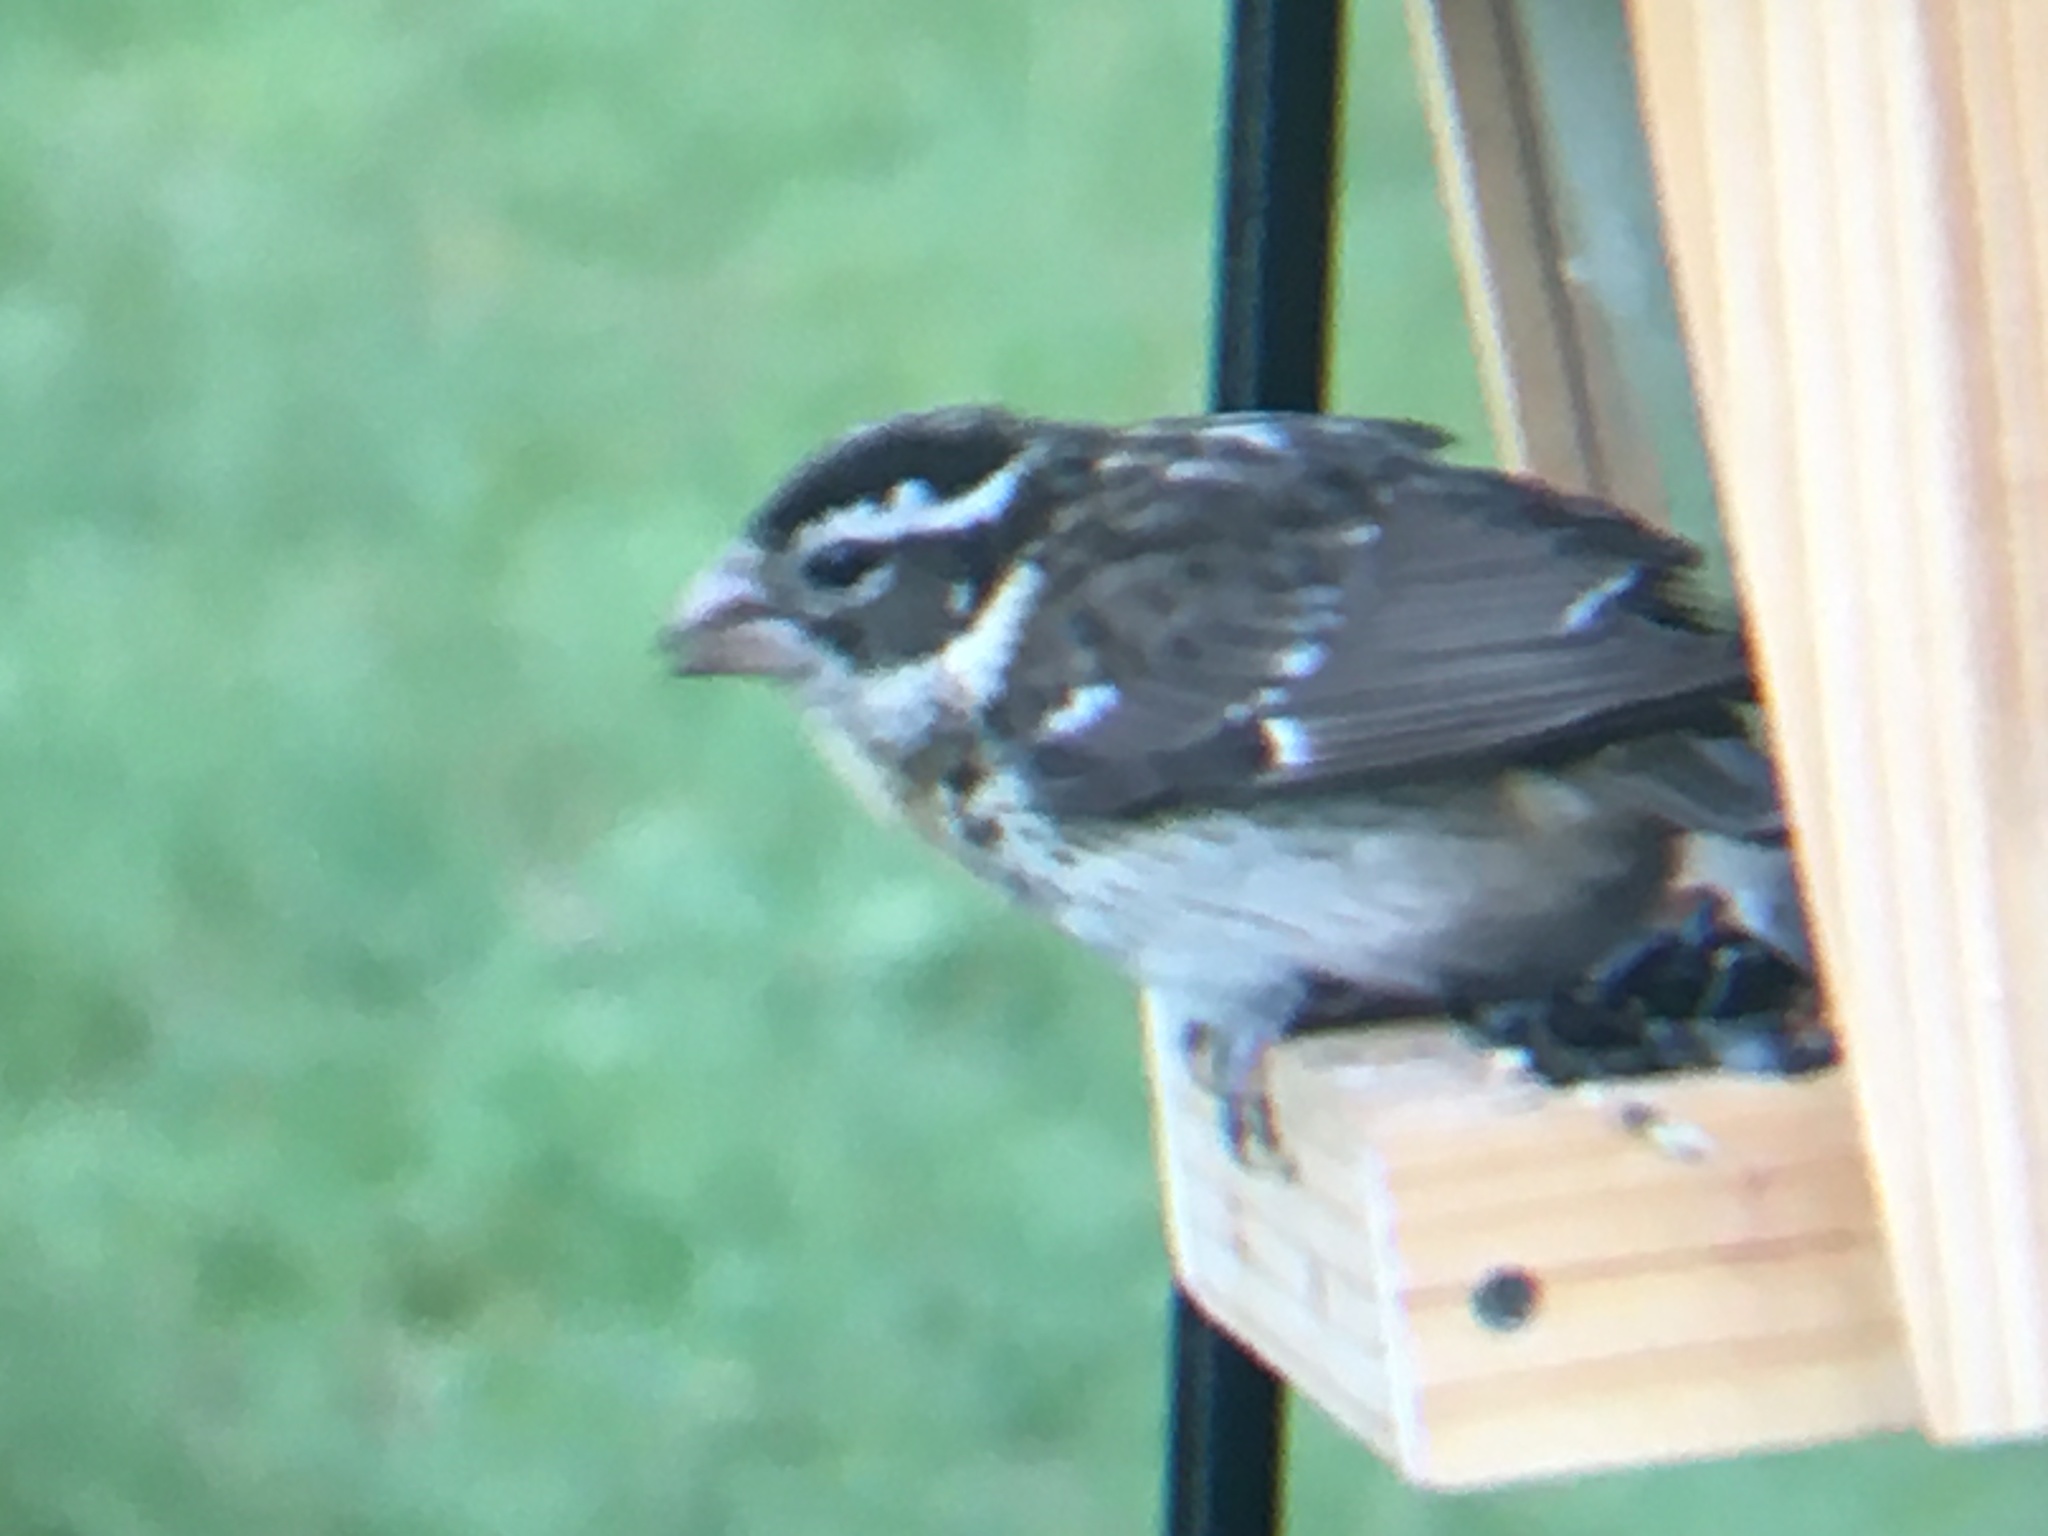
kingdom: Animalia
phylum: Chordata
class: Aves
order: Passeriformes
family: Cardinalidae
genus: Pheucticus
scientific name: Pheucticus ludovicianus
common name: Rose-breasted grosbeak
